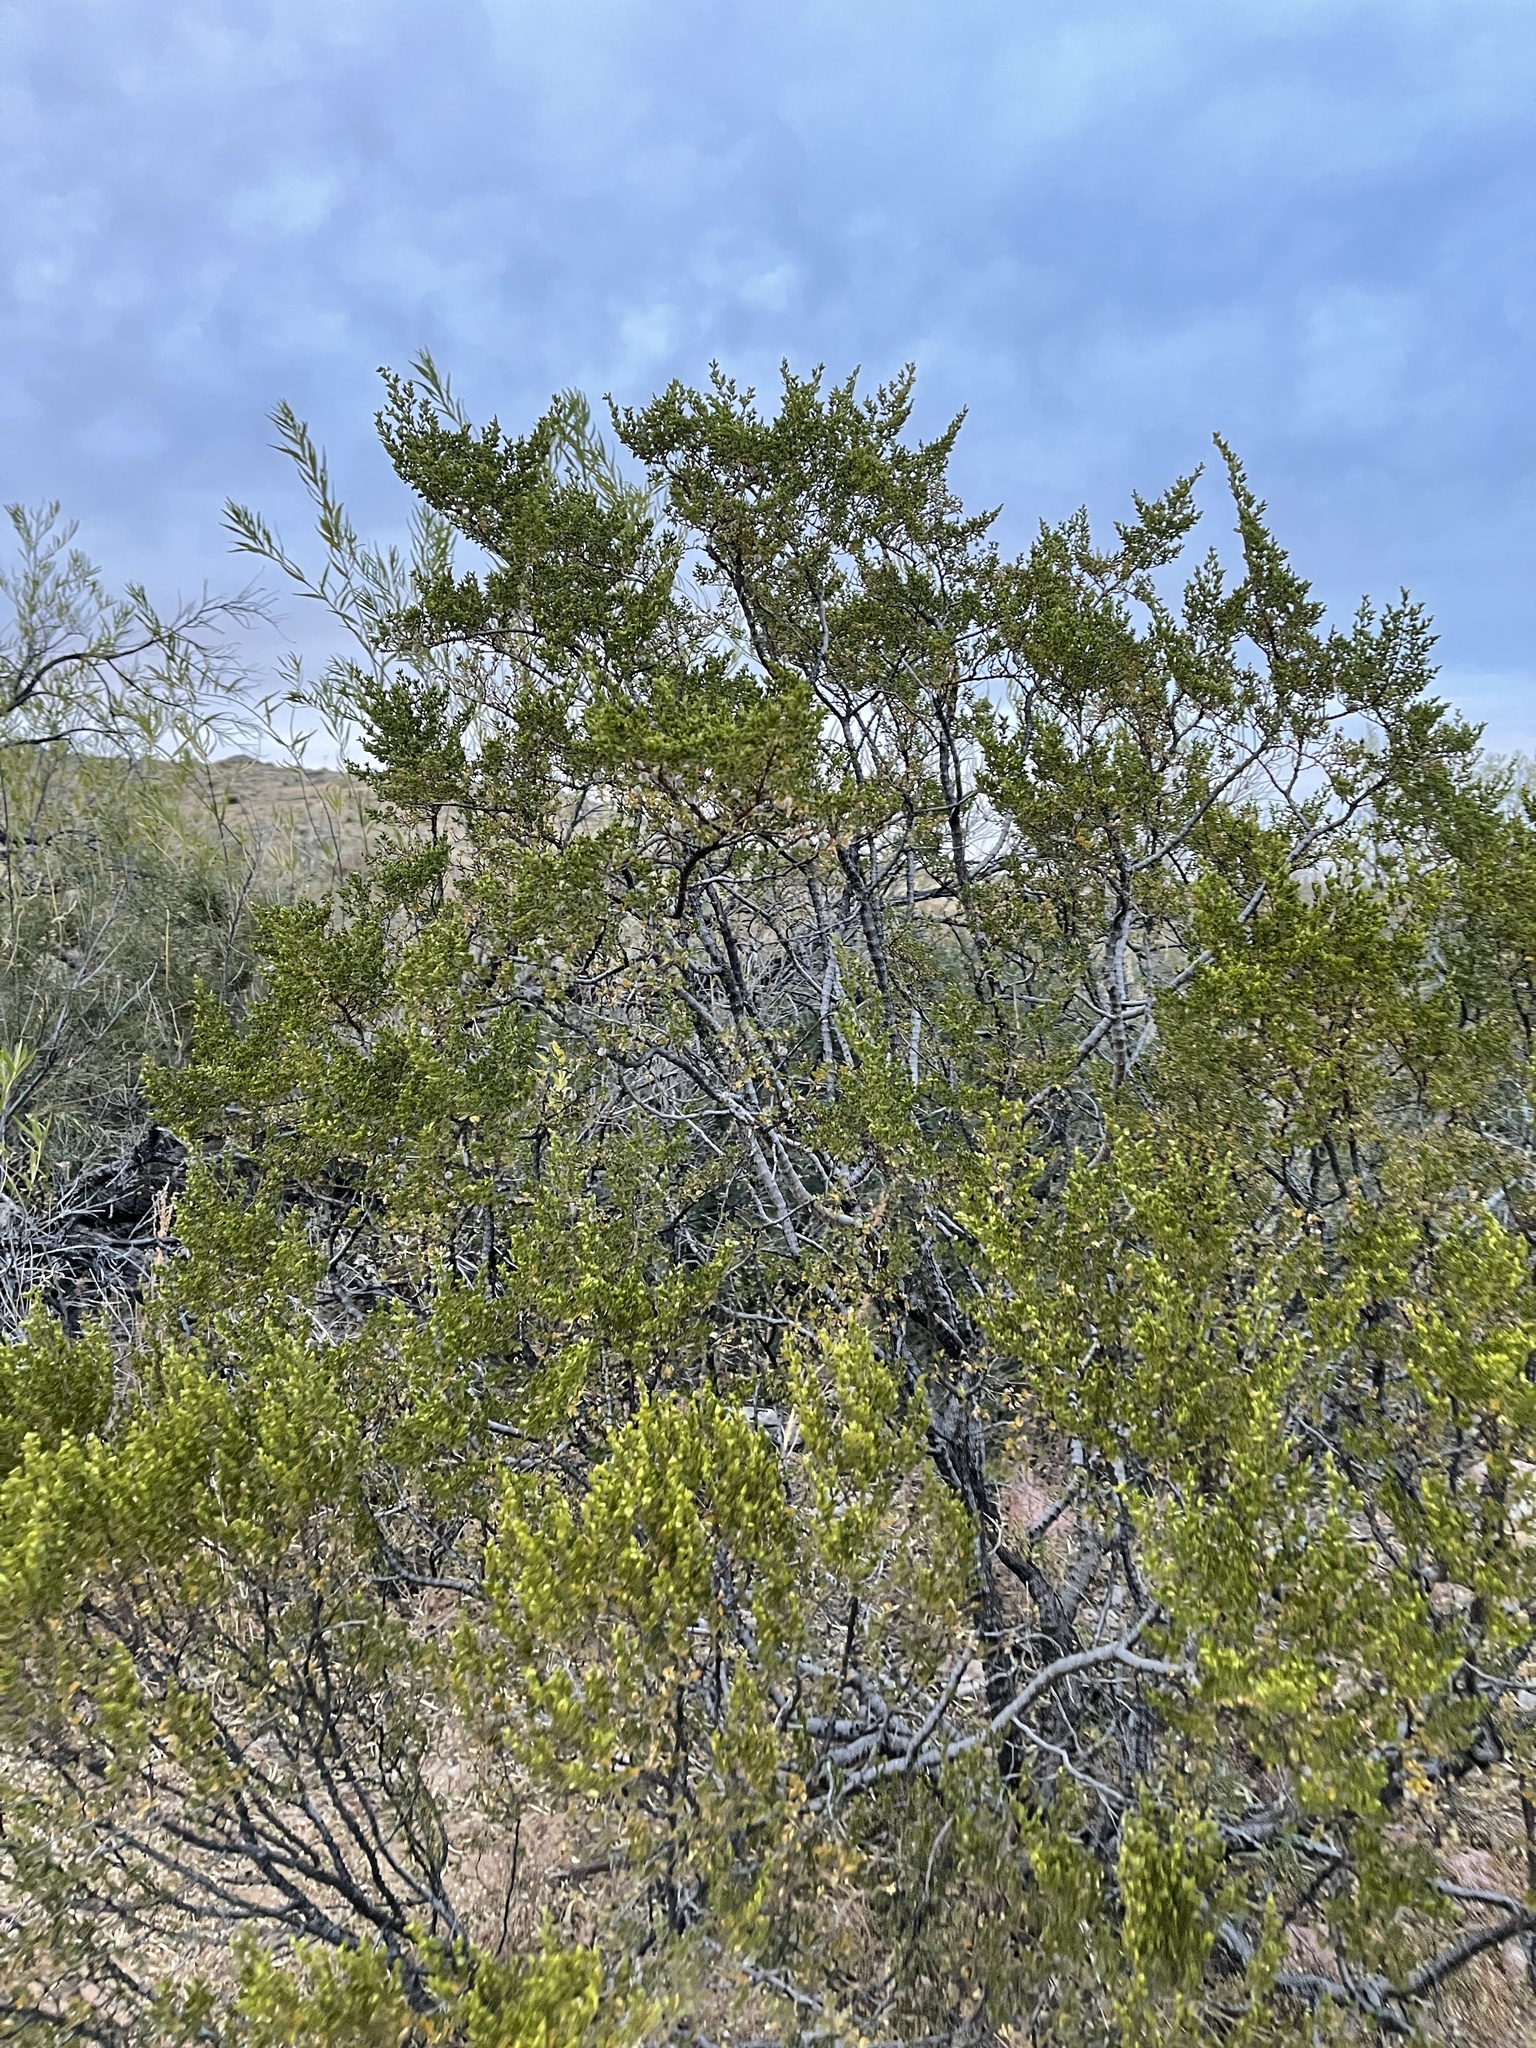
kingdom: Plantae
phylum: Tracheophyta
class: Magnoliopsida
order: Zygophyllales
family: Zygophyllaceae
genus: Larrea
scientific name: Larrea tridentata
